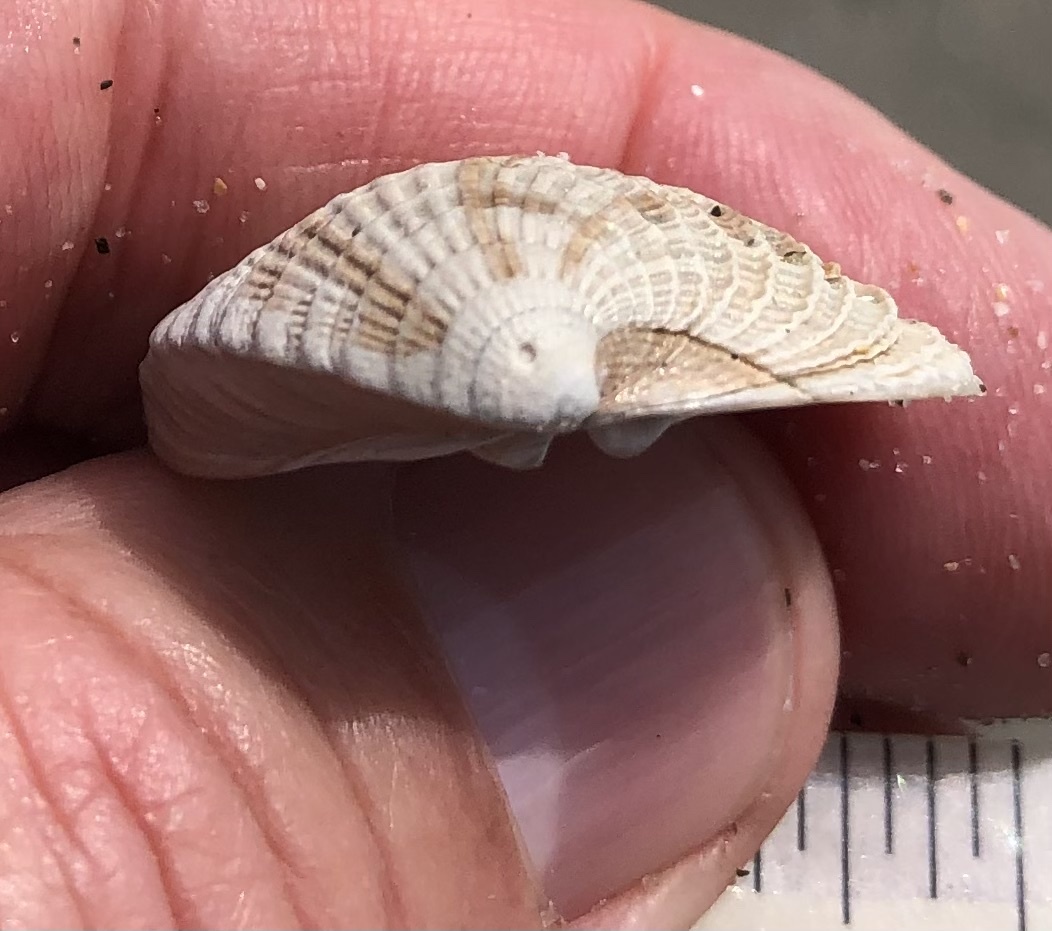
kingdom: Animalia
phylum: Mollusca
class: Bivalvia
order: Venerida
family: Veneridae
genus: Chione
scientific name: Chione elevata
